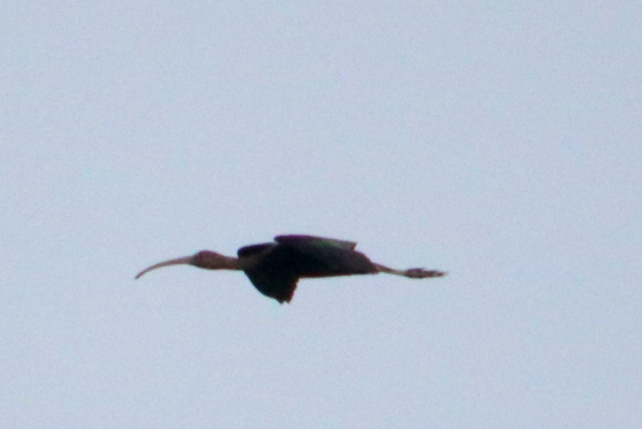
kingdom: Animalia
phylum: Chordata
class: Aves
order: Pelecaniformes
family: Threskiornithidae
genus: Plegadis
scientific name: Plegadis falcinellus
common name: Glossy ibis
